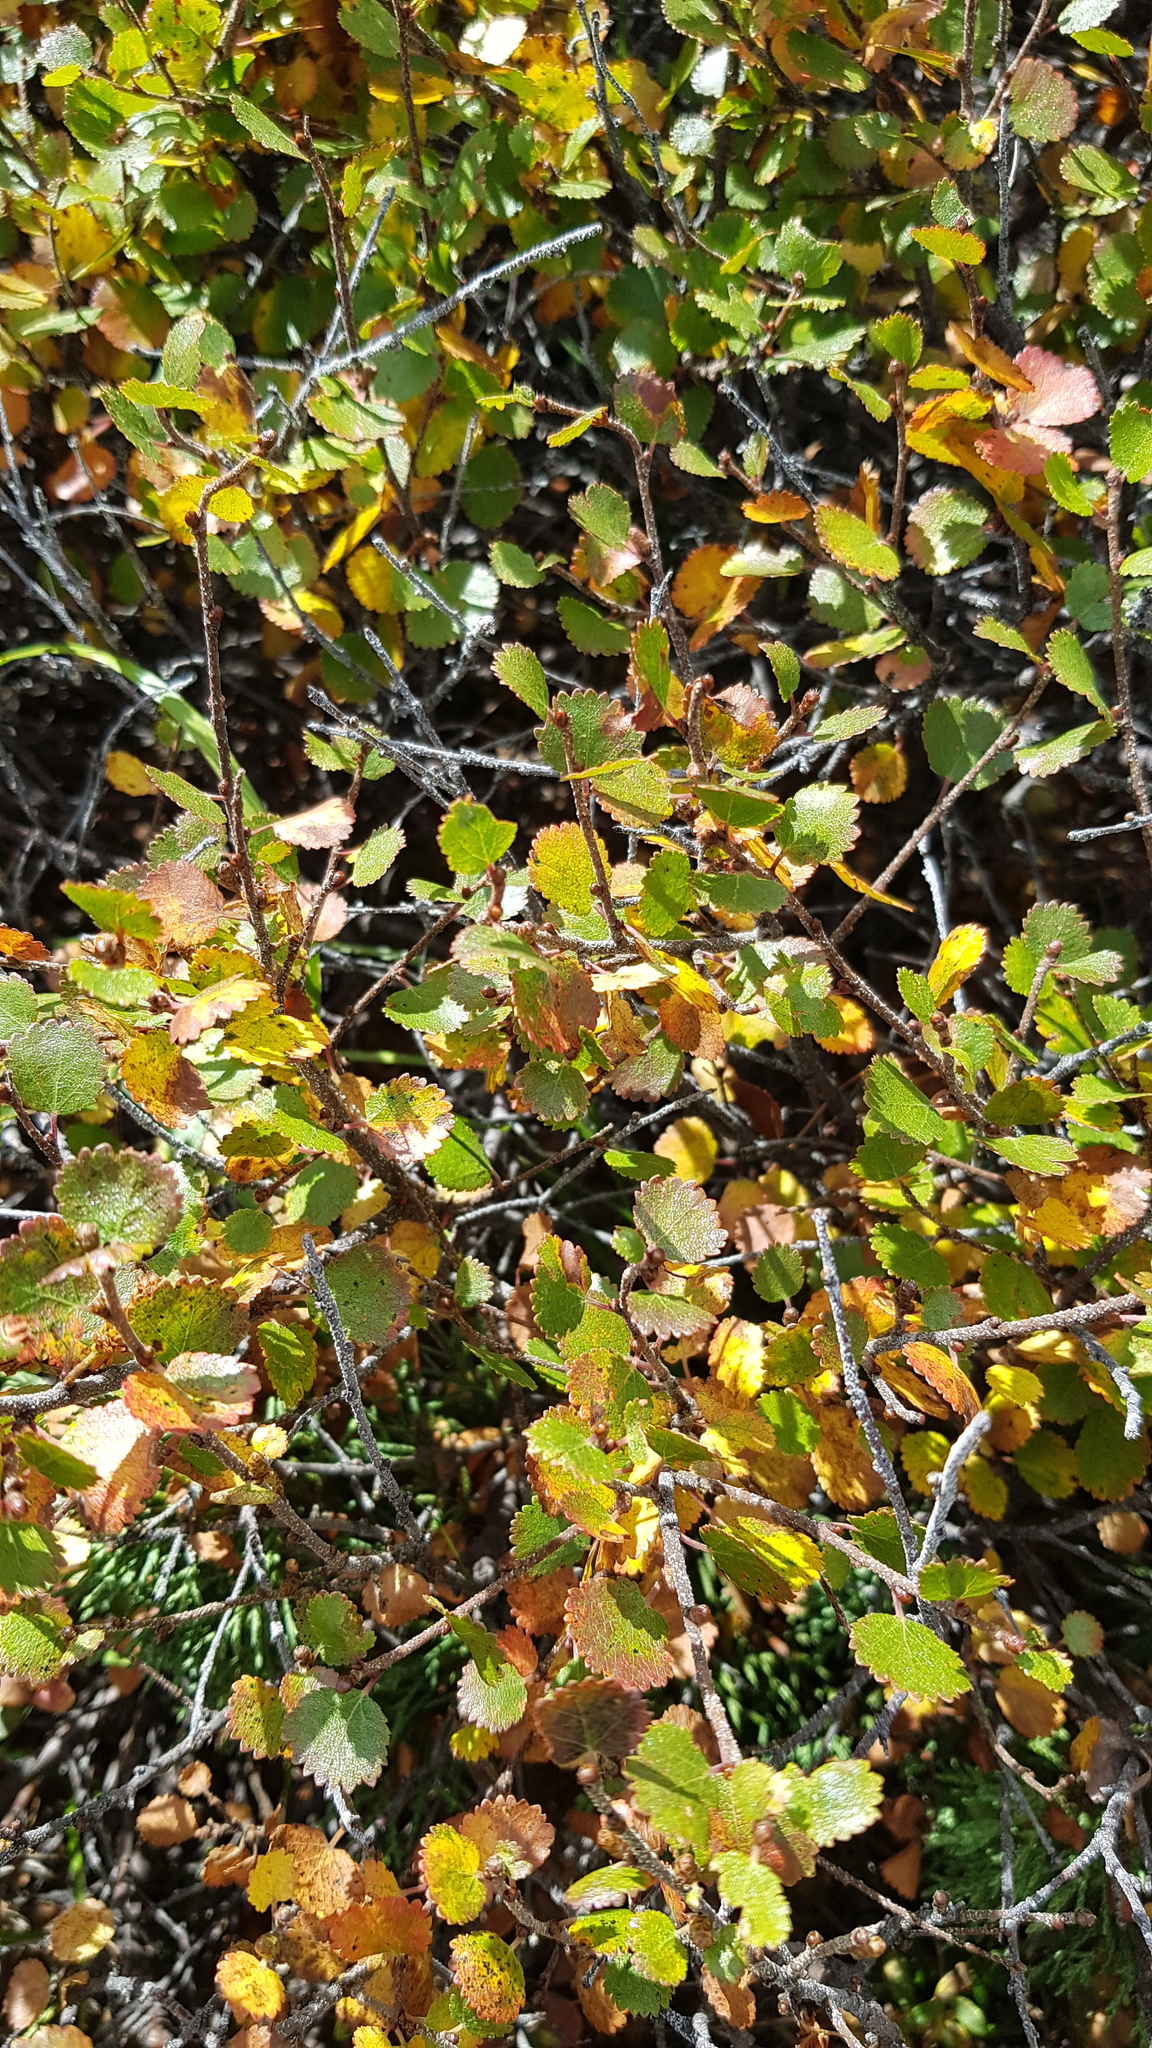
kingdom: Plantae
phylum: Tracheophyta
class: Magnoliopsida
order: Fagales
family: Betulaceae
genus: Betula
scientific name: Betula glandulosa
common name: Dwarf birch
